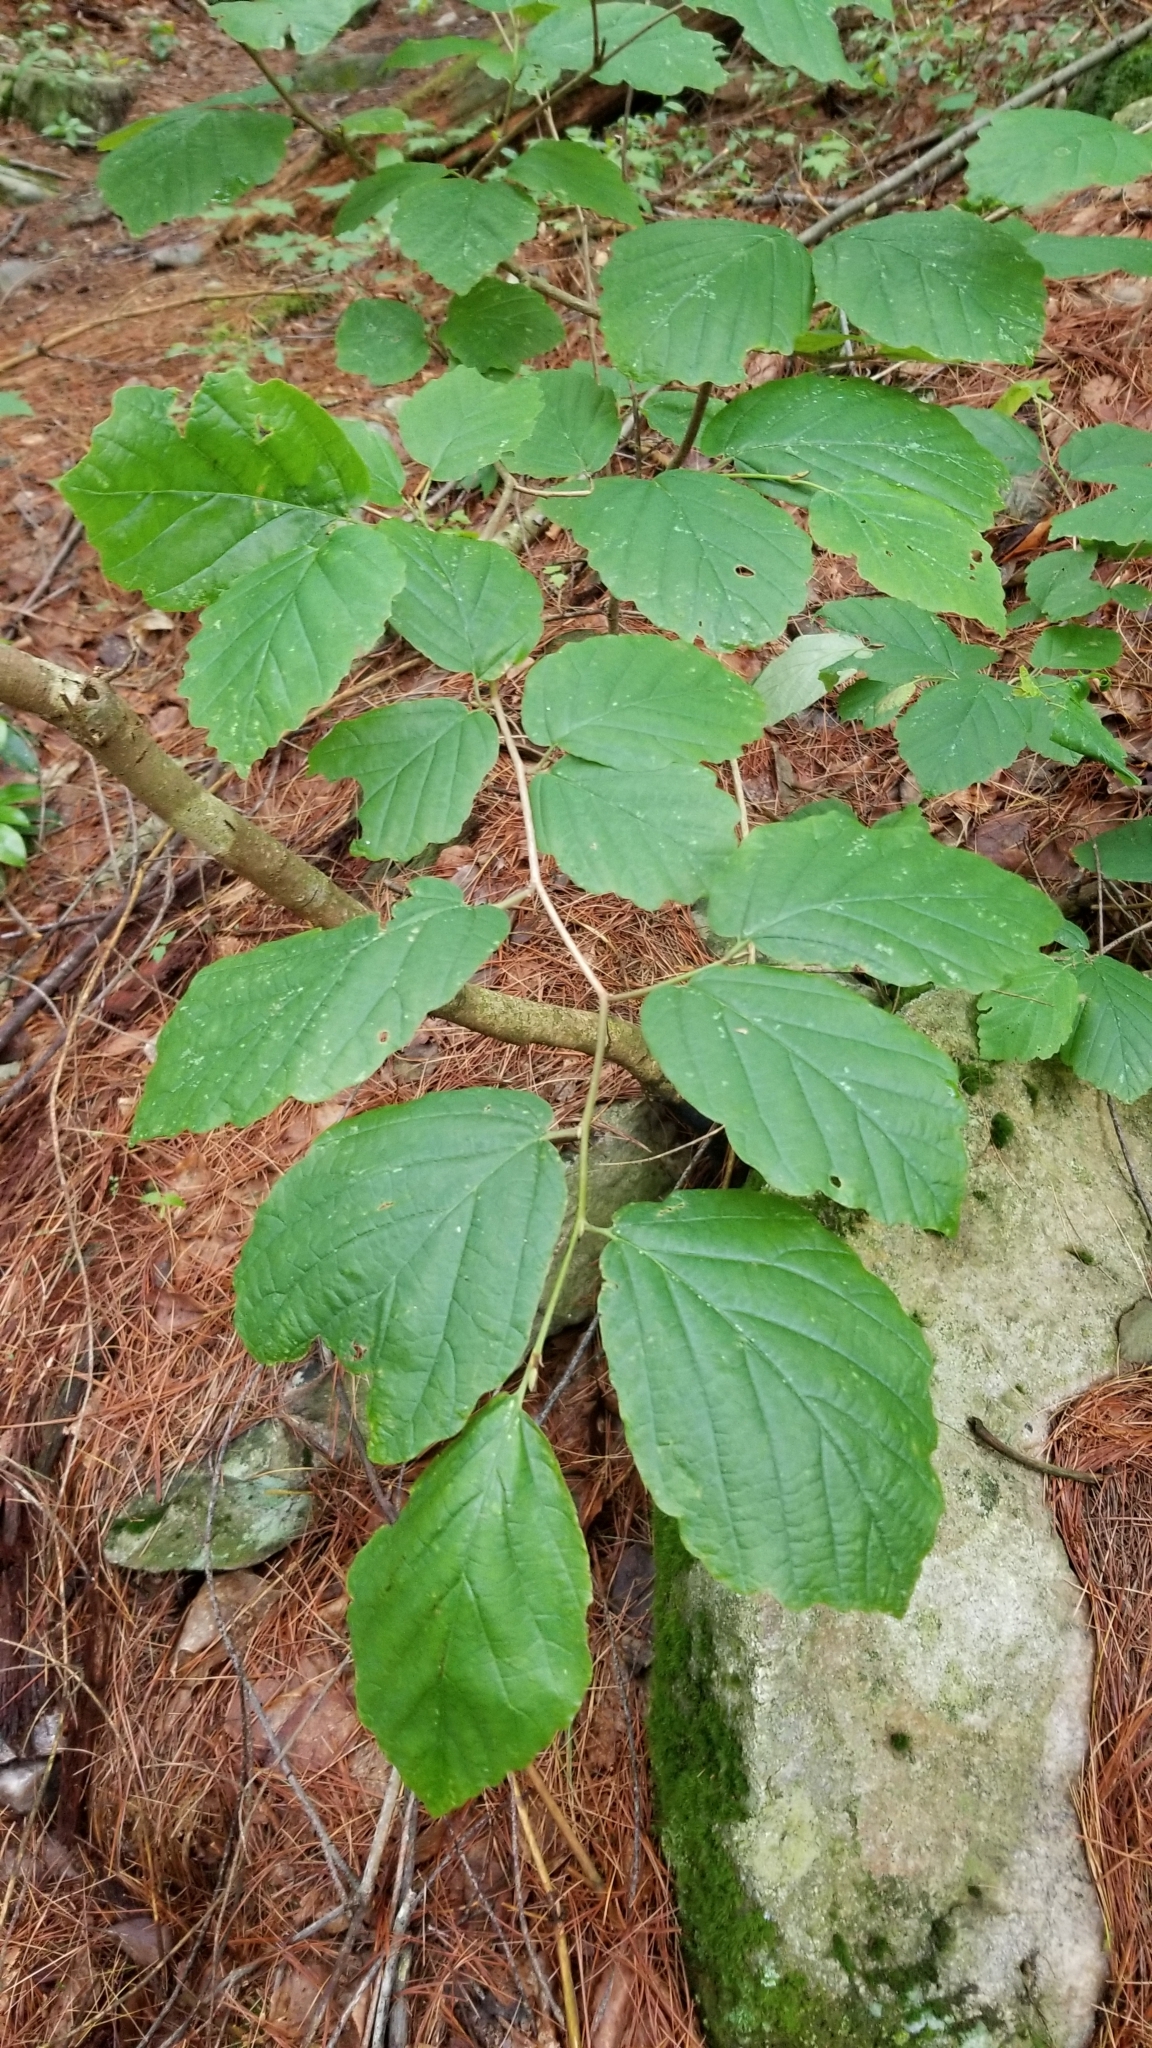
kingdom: Plantae
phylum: Tracheophyta
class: Magnoliopsida
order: Saxifragales
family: Hamamelidaceae
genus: Hamamelis
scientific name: Hamamelis virginiana
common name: Witch-hazel
